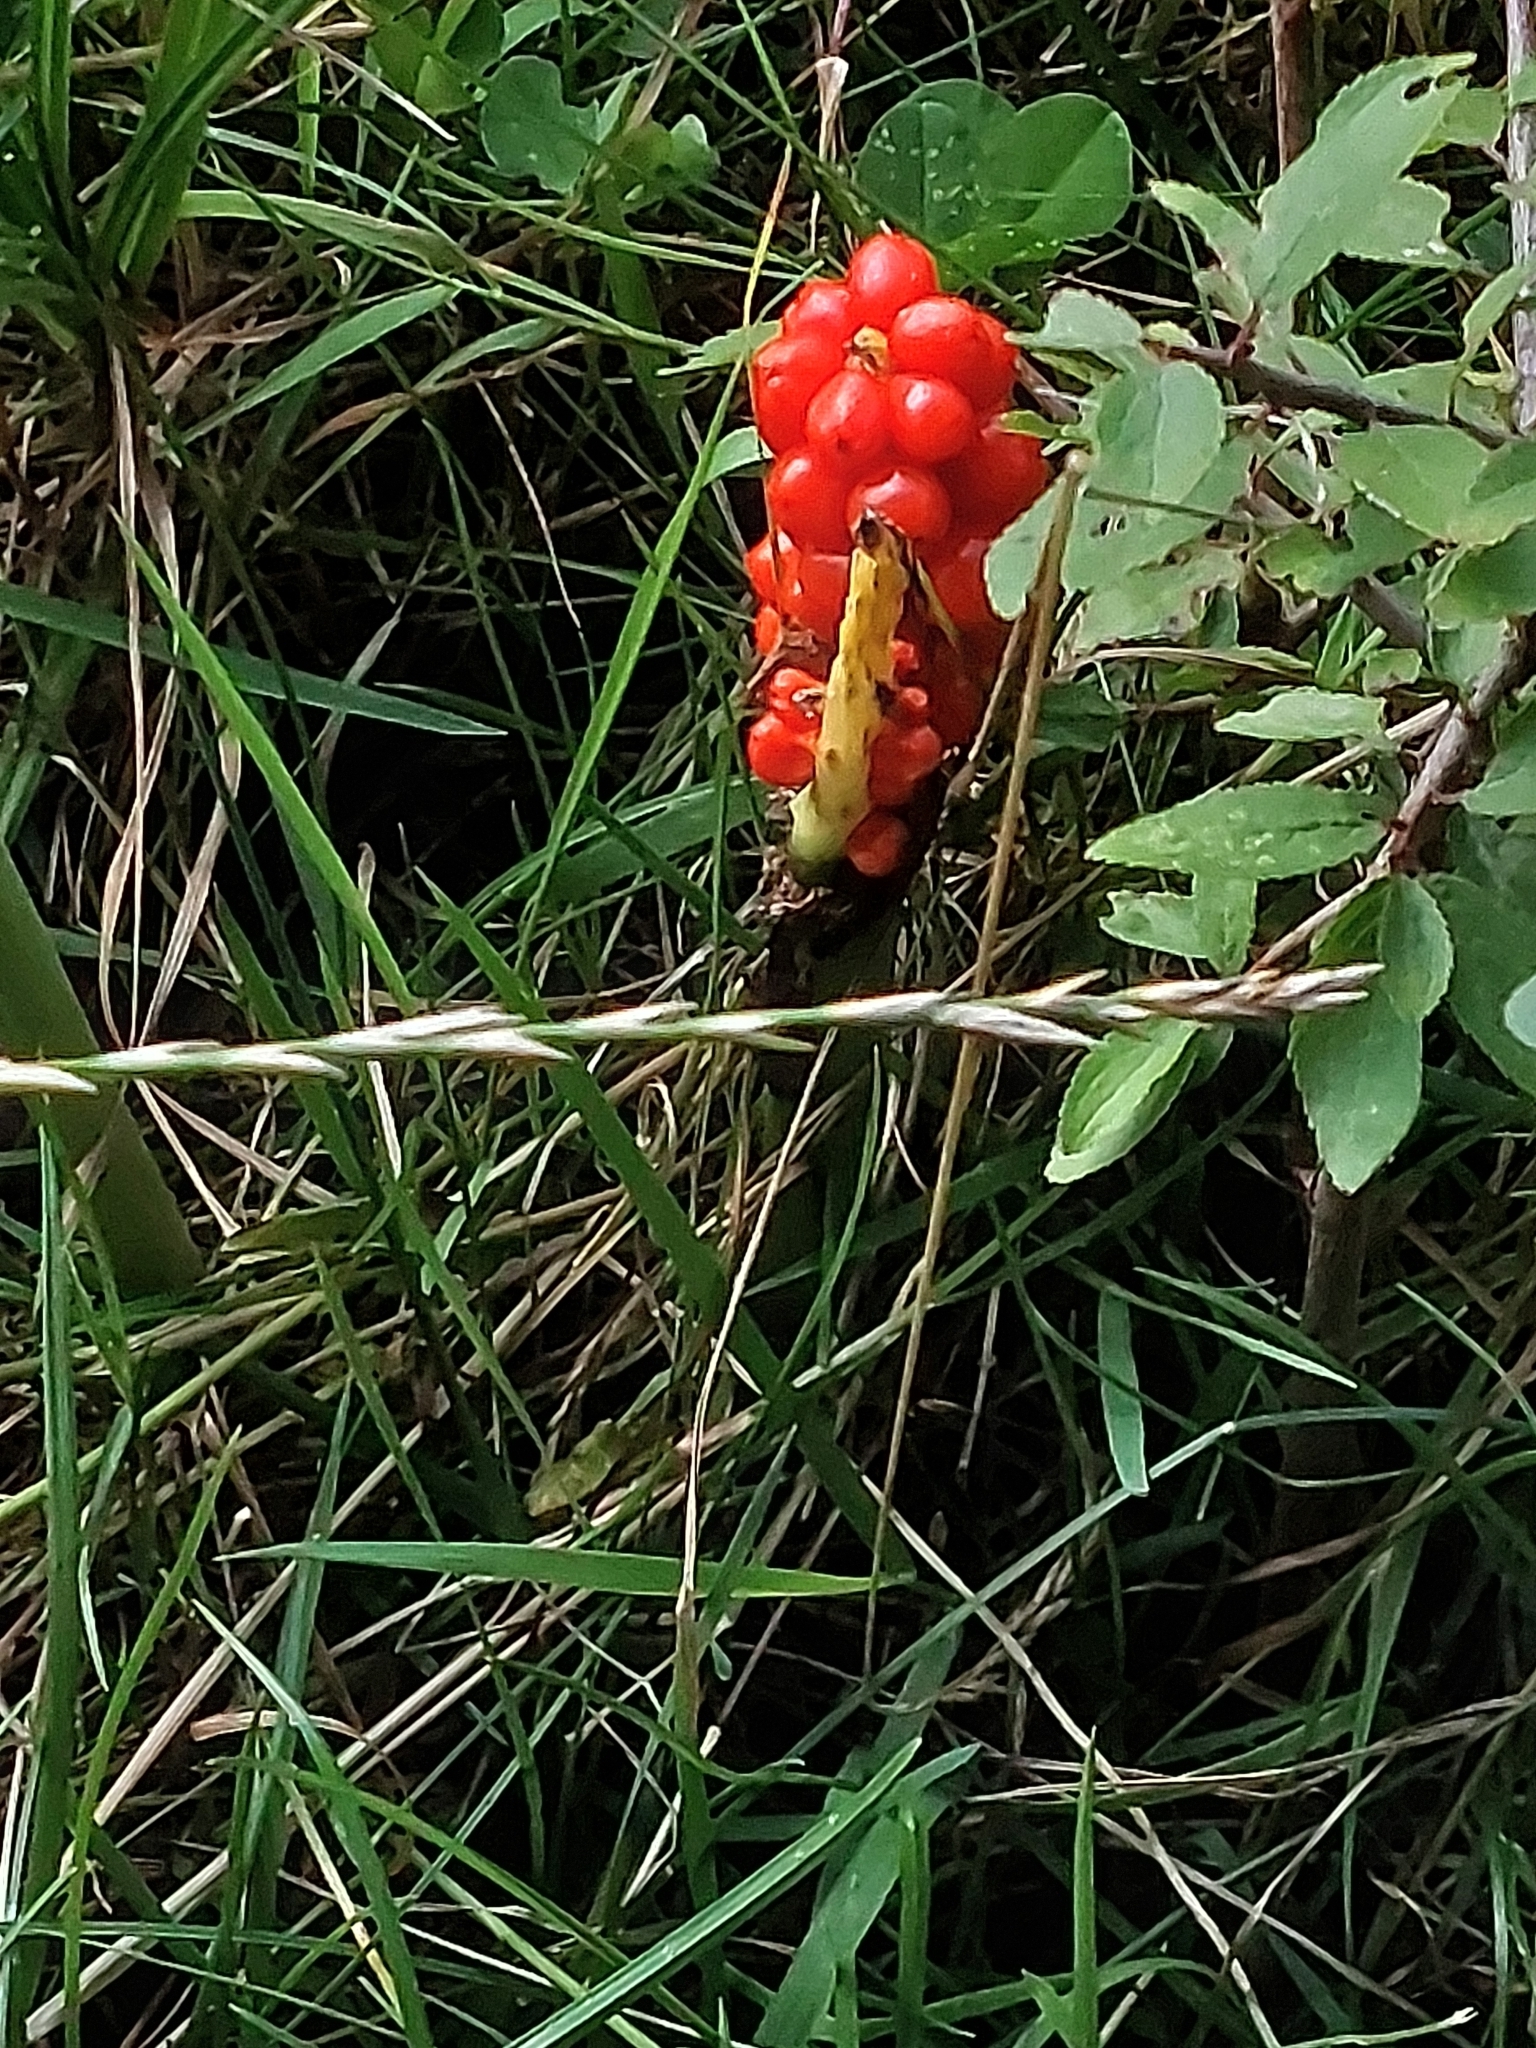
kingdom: Plantae
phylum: Tracheophyta
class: Liliopsida
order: Alismatales
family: Araceae
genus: Arum
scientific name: Arum maculatum
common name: Lords-and-ladies
